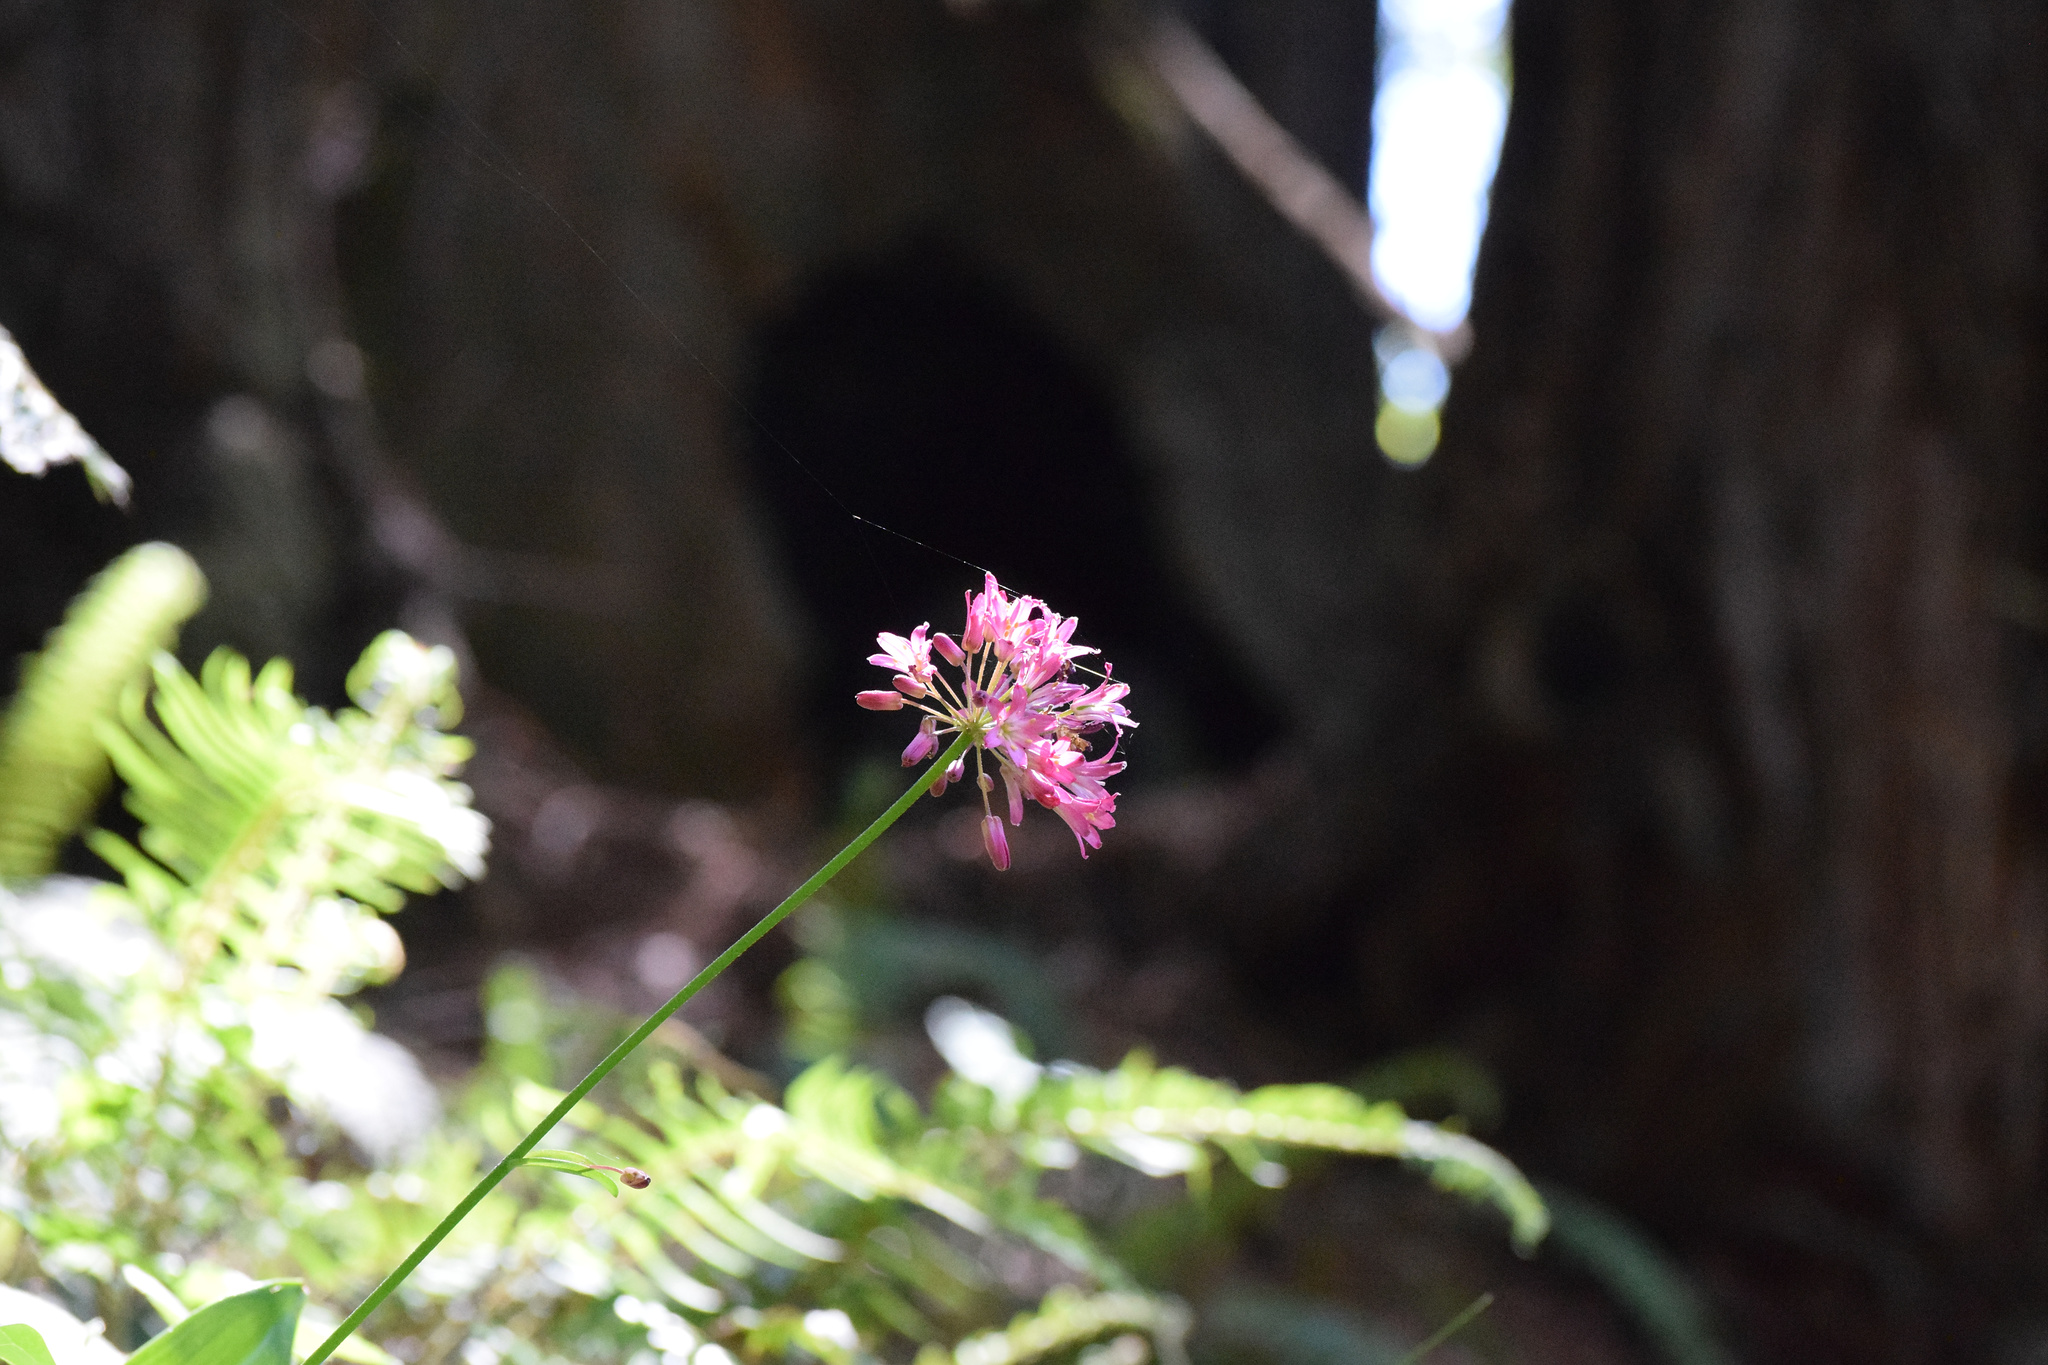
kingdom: Plantae
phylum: Tracheophyta
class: Liliopsida
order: Liliales
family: Liliaceae
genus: Clintonia
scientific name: Clintonia andrewsiana
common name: Red clintonia
